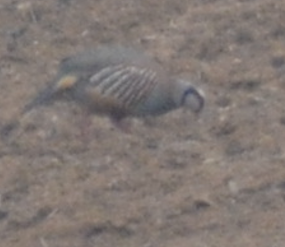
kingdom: Animalia
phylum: Chordata
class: Aves
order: Galliformes
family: Phasianidae
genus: Alectoris
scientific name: Alectoris rufa
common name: Red-legged partridge
